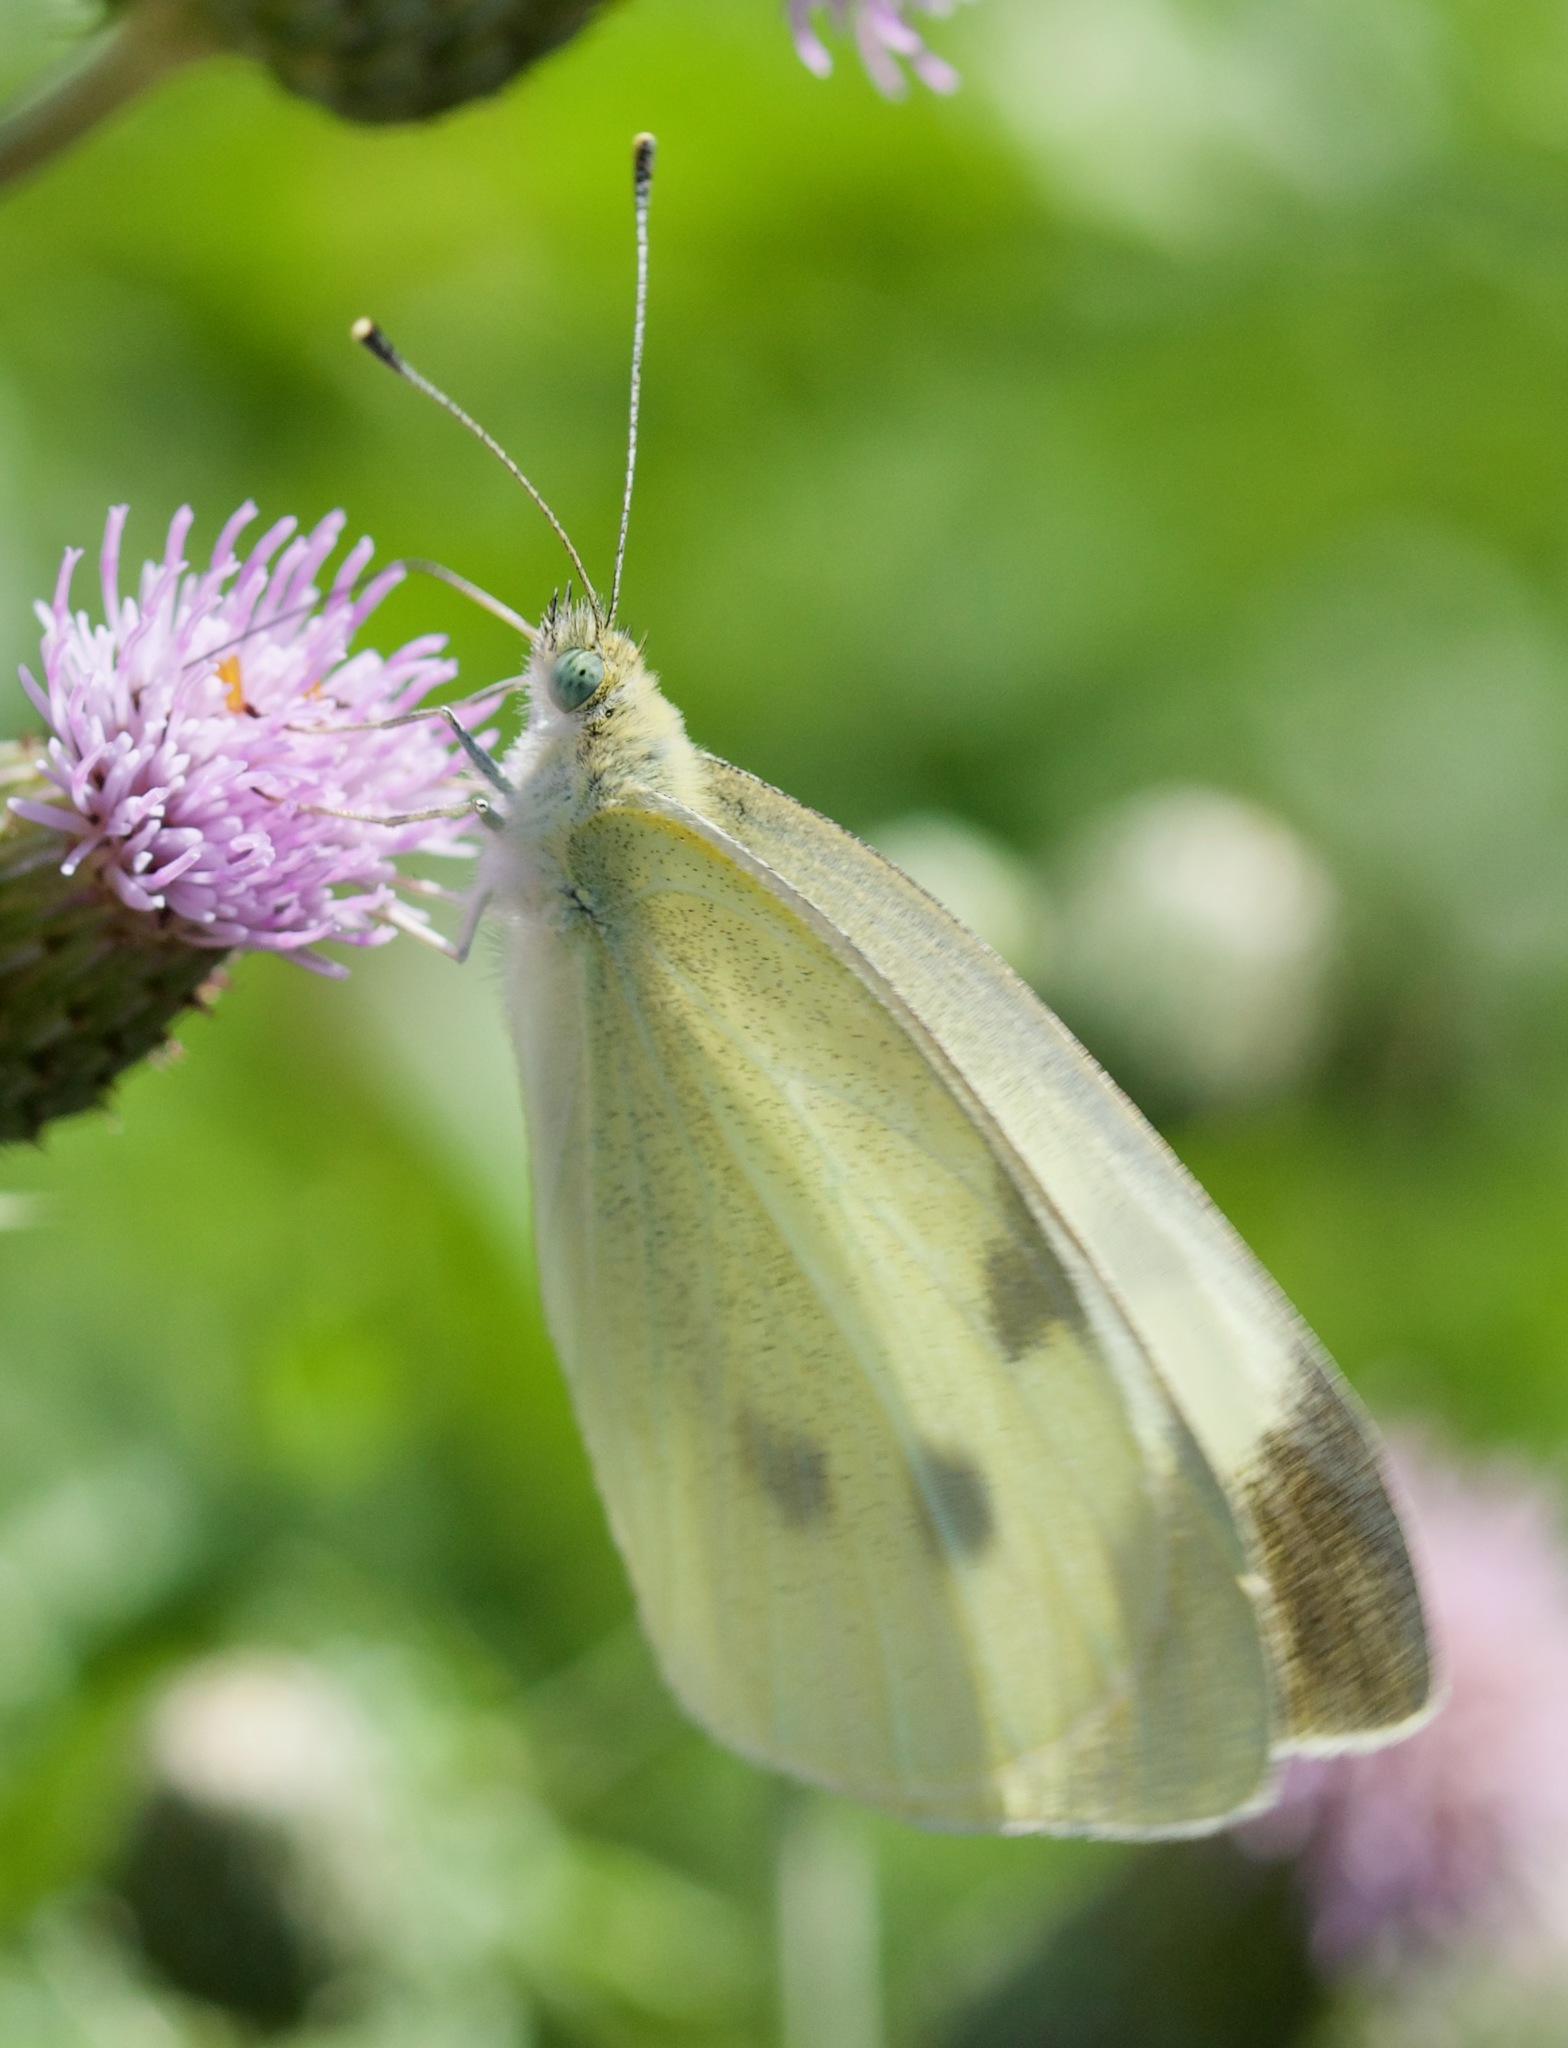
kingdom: Animalia
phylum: Arthropoda
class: Insecta
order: Lepidoptera
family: Pieridae
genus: Pieris
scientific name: Pieris rapae
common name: Small white
